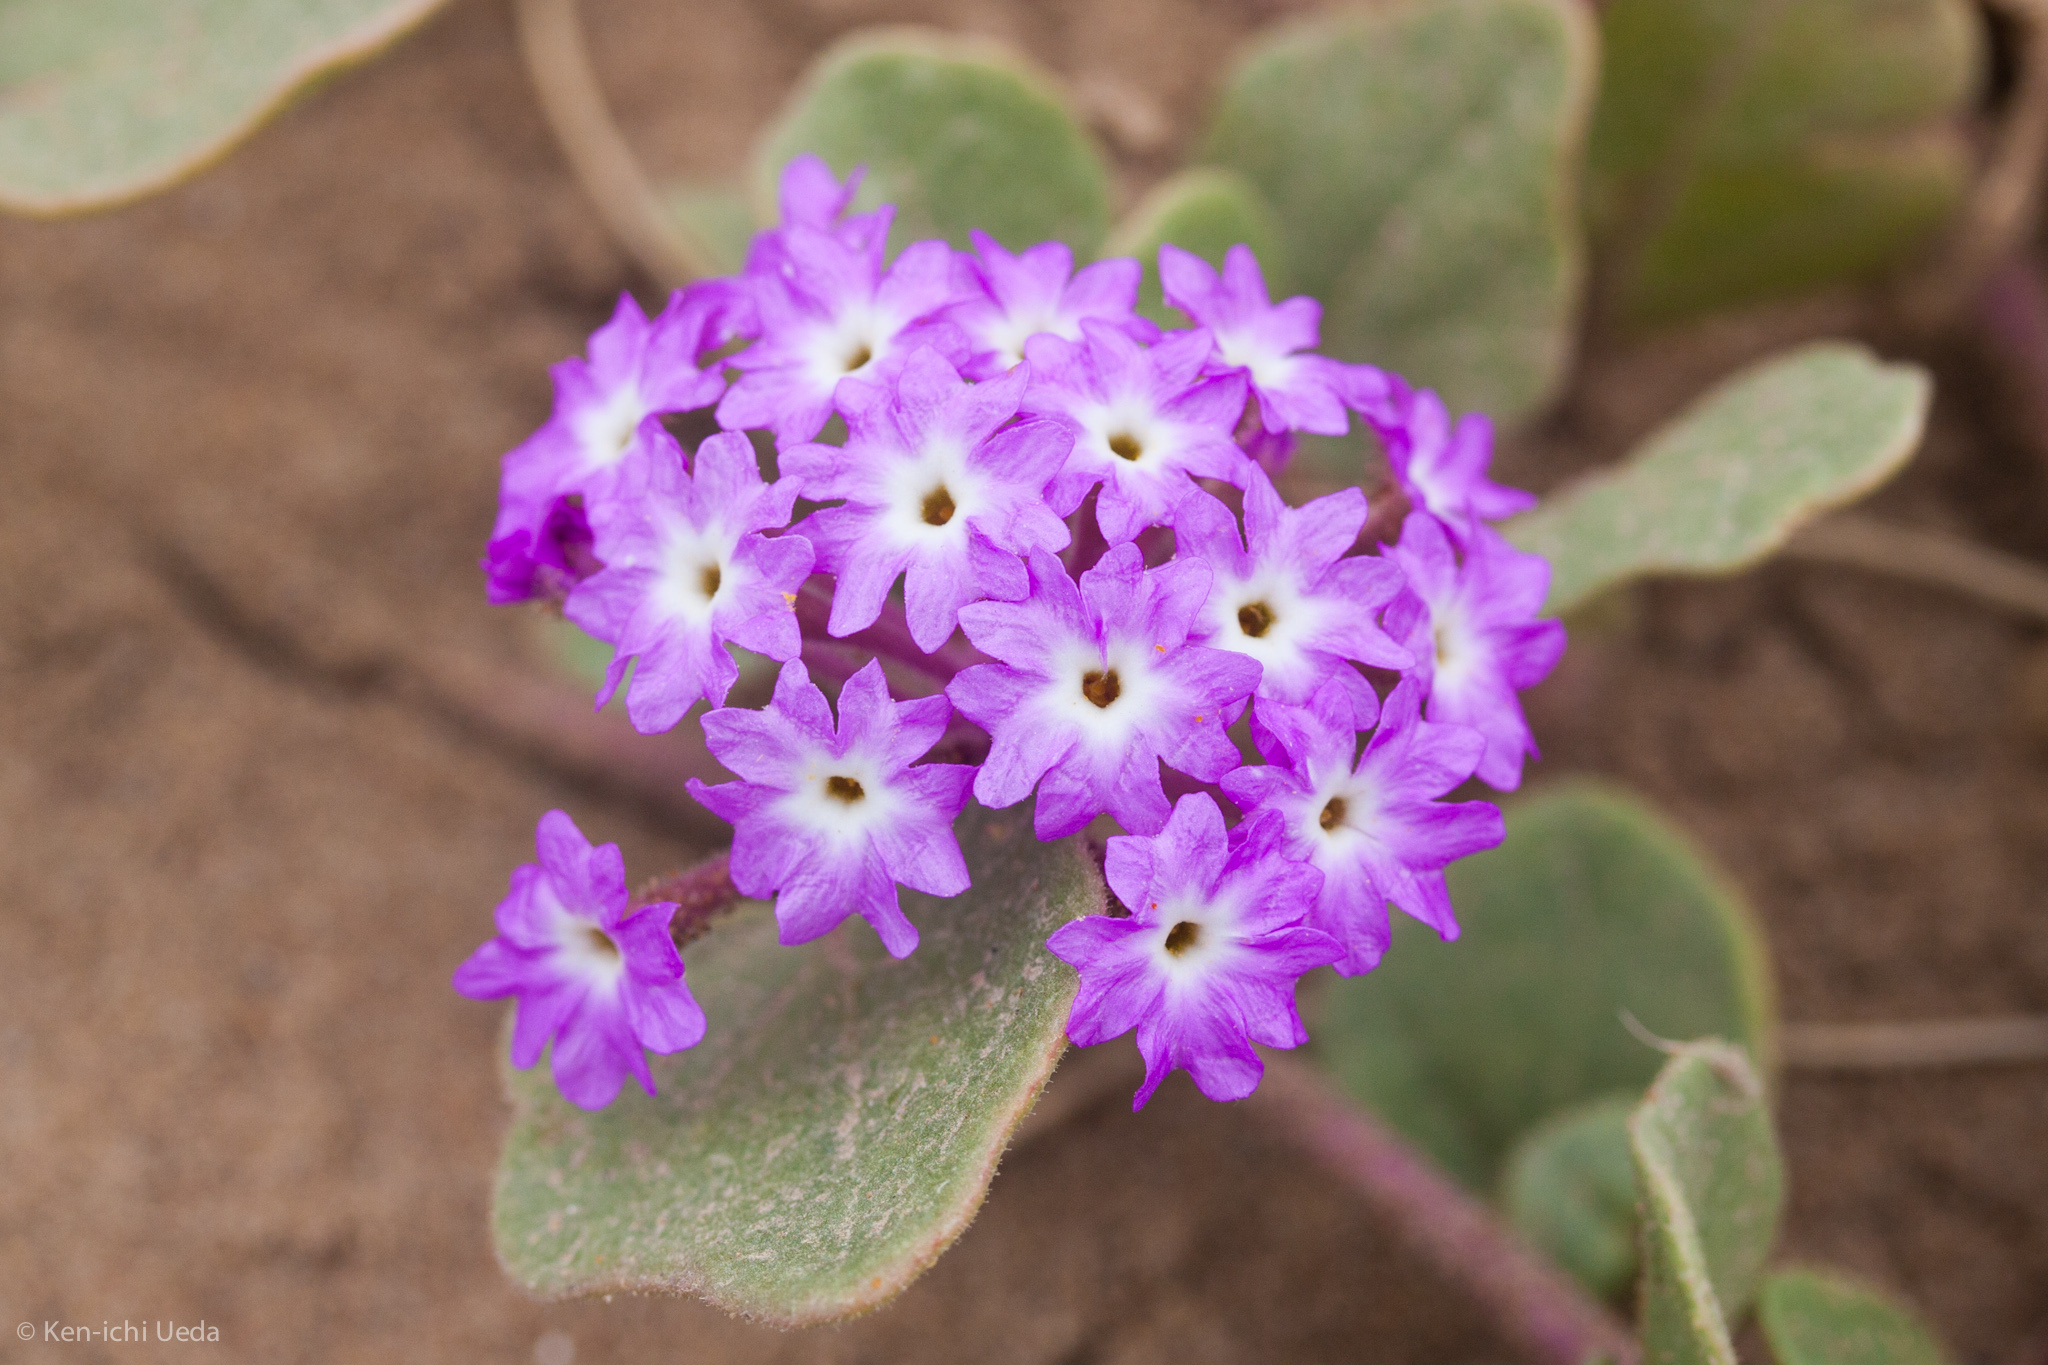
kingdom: Plantae
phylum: Tracheophyta
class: Magnoliopsida
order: Caryophyllales
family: Nyctaginaceae
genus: Abronia
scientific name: Abronia umbellata
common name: Sand-verbena
